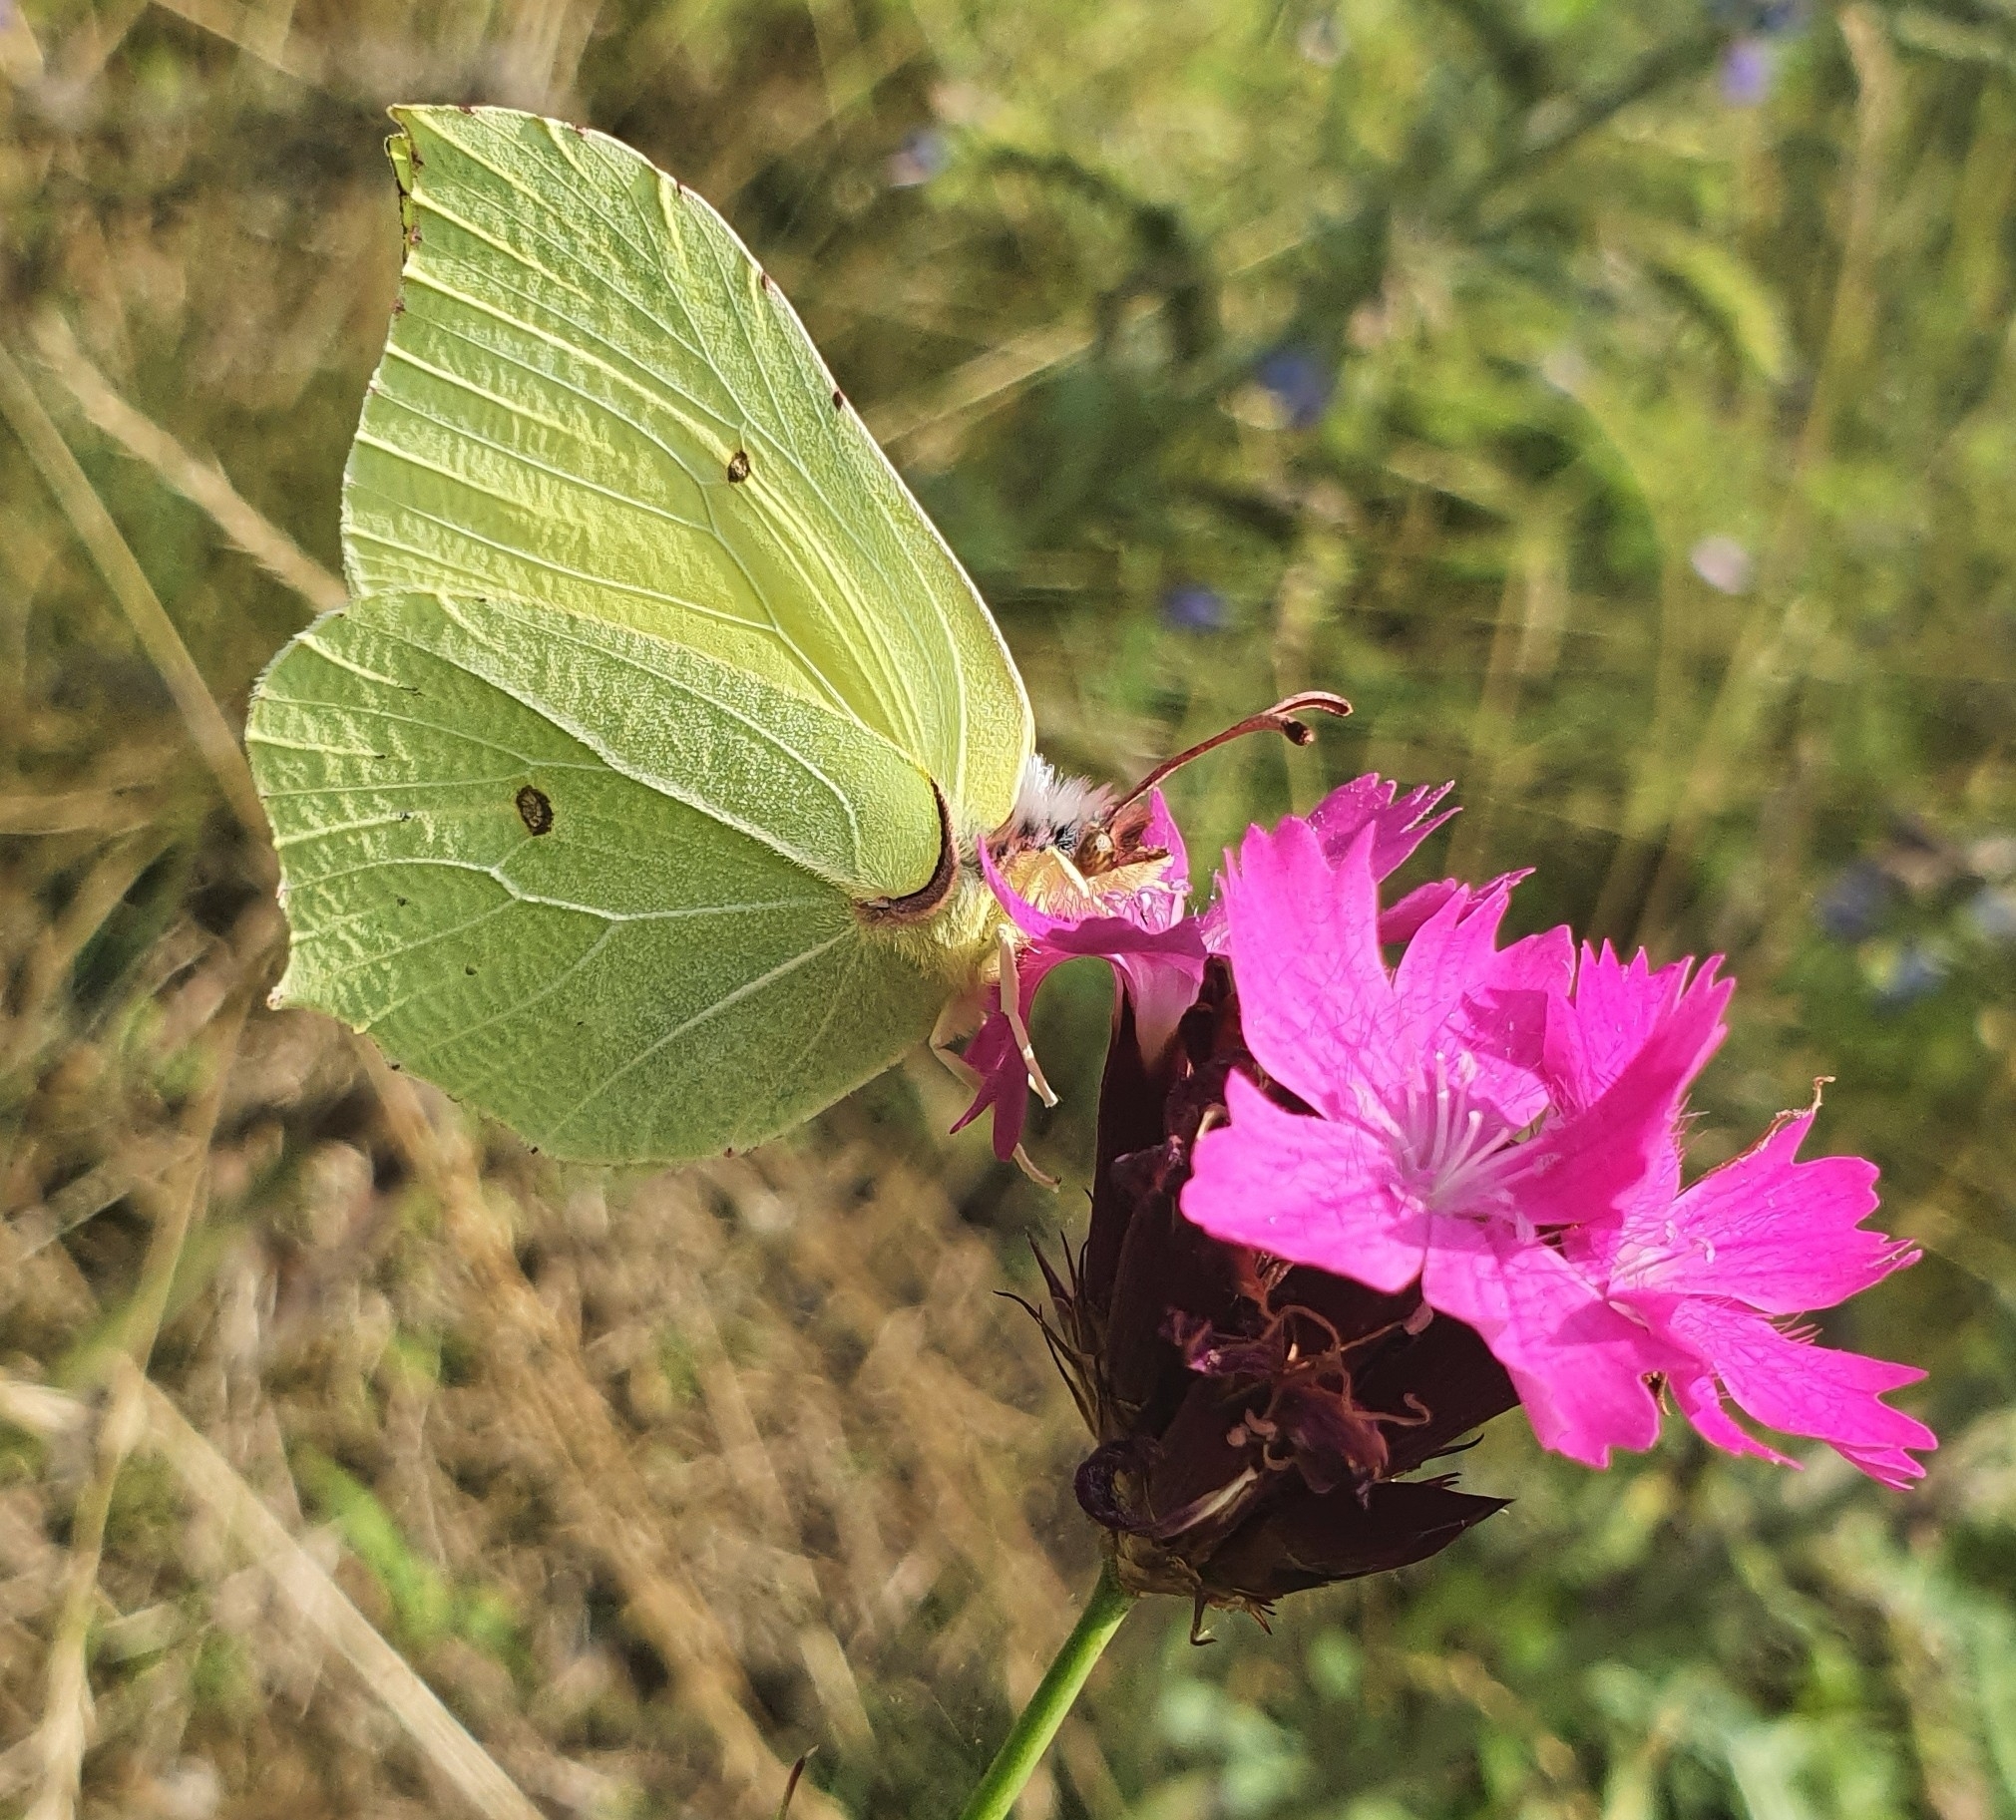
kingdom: Animalia
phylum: Arthropoda
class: Insecta
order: Lepidoptera
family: Pieridae
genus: Gonepteryx
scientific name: Gonepteryx rhamni
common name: Brimstone
